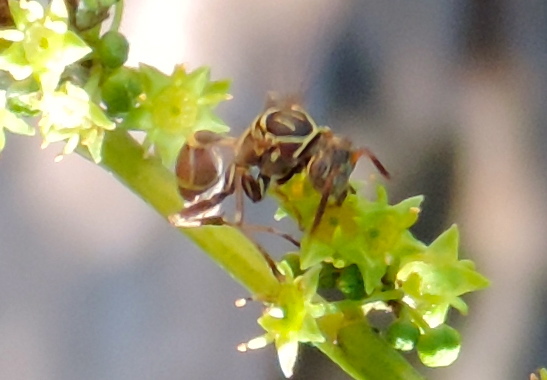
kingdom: Animalia
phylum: Arthropoda
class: Insecta
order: Hymenoptera
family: Vespidae
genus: Mischocyttarus
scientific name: Mischocyttarus mexicanus
